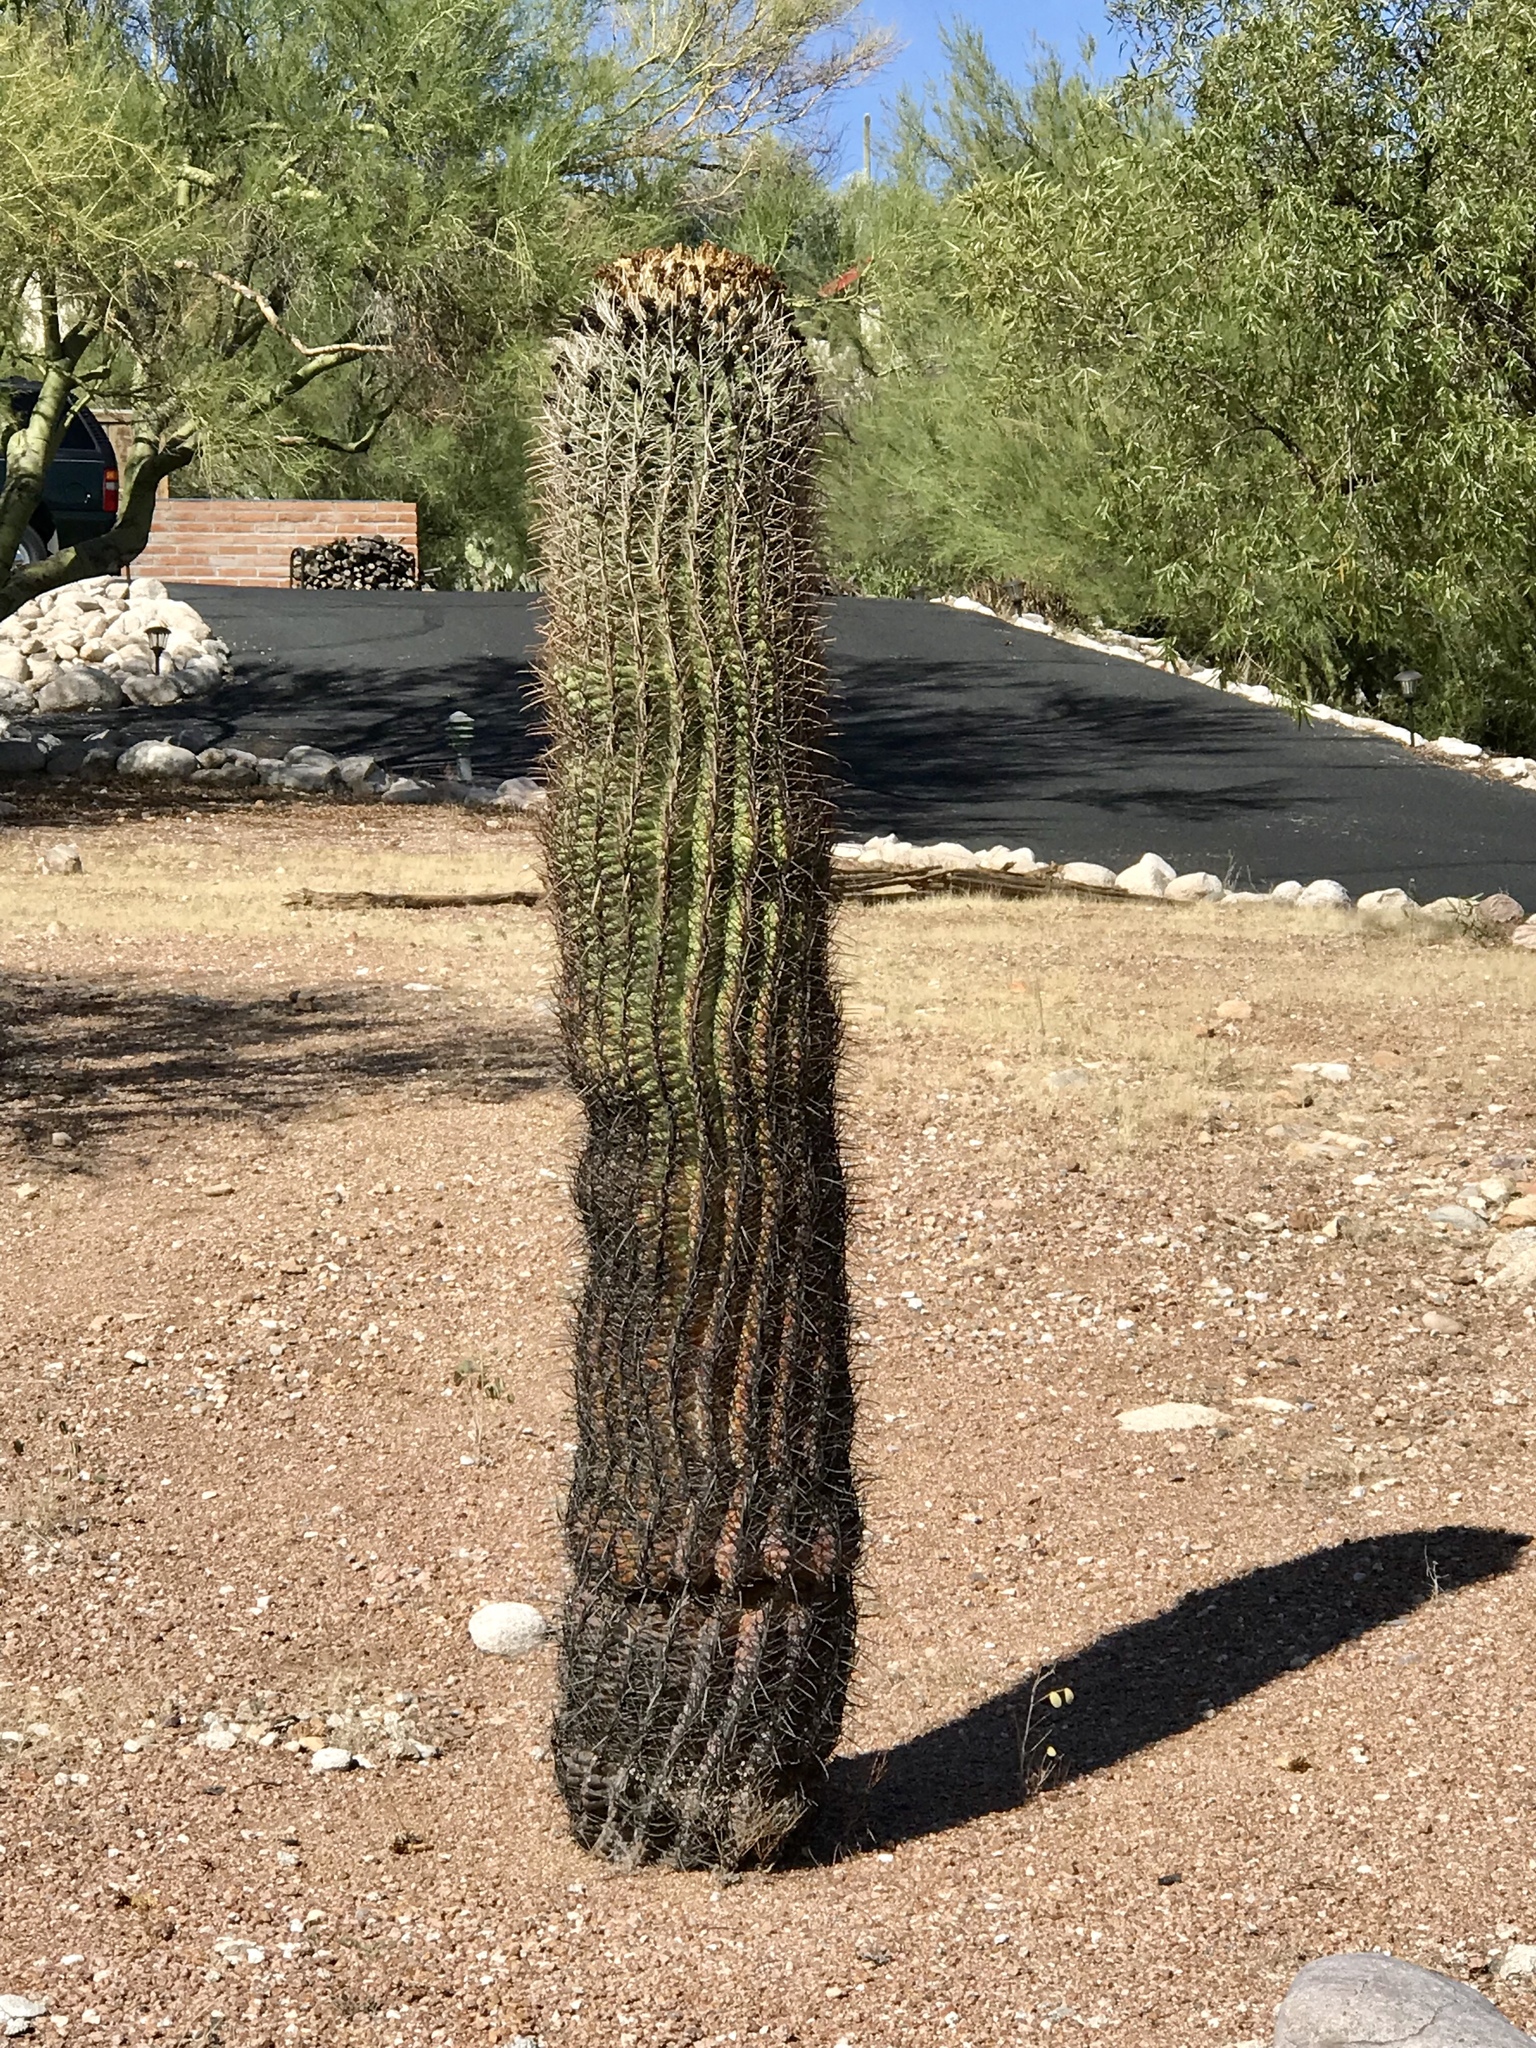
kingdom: Plantae
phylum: Tracheophyta
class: Magnoliopsida
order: Caryophyllales
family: Cactaceae
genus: Ferocactus
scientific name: Ferocactus wislizeni
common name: Candy barrel cactus
